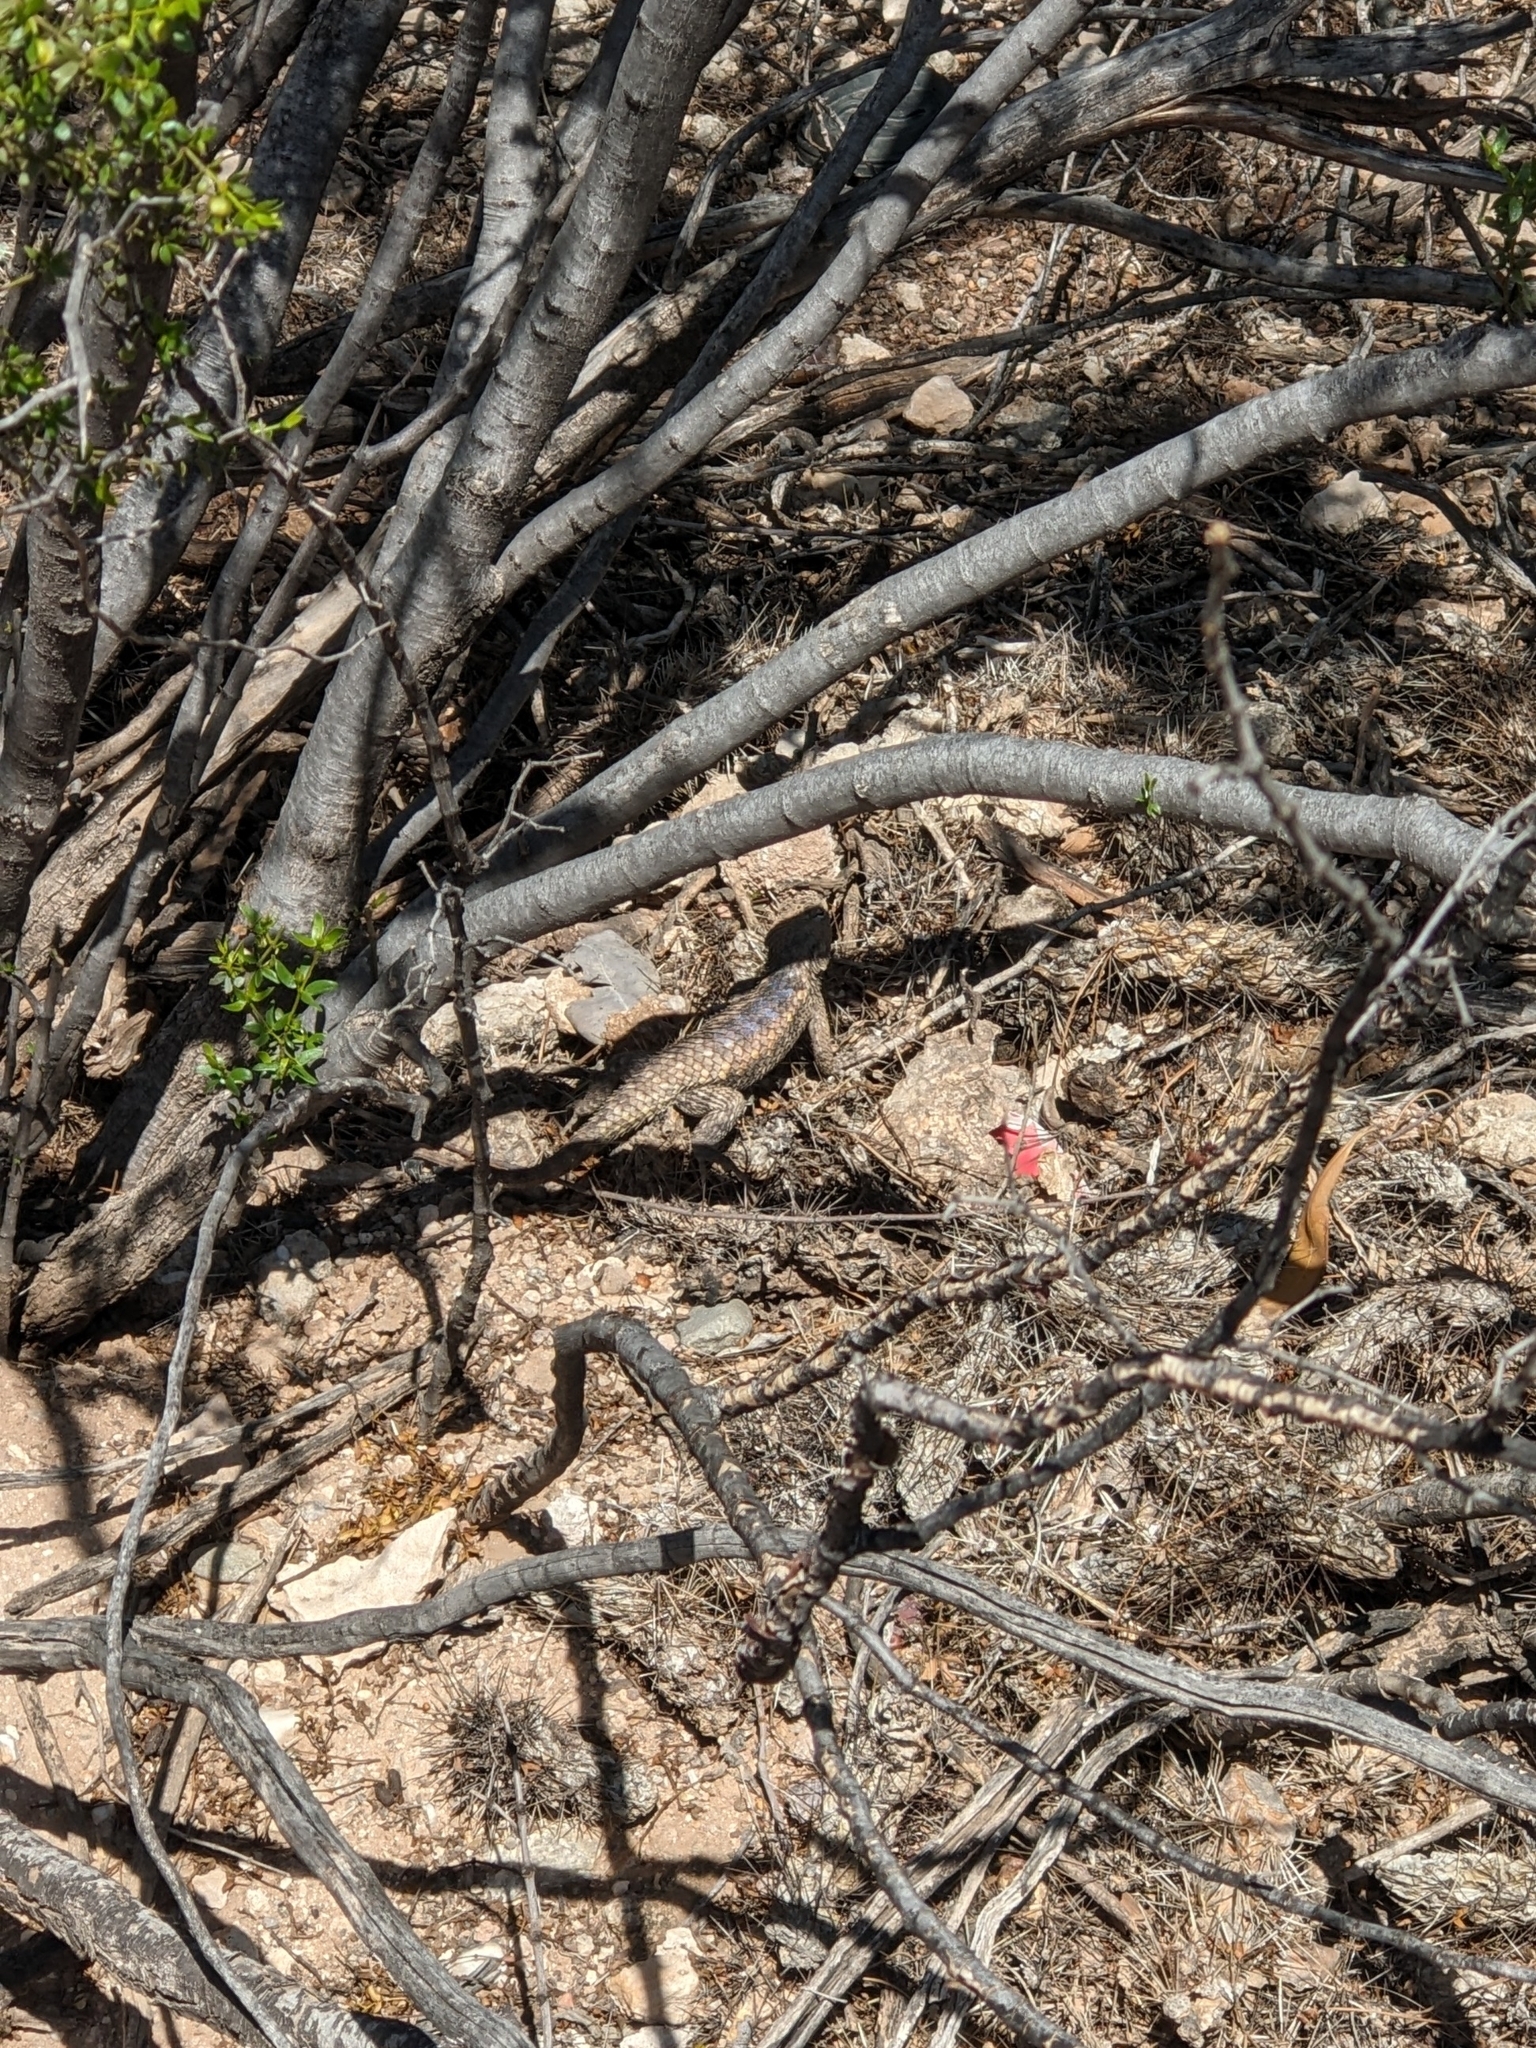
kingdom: Animalia
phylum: Chordata
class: Squamata
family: Phrynosomatidae
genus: Sceloporus
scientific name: Sceloporus magister
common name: Desert spiny lizard
